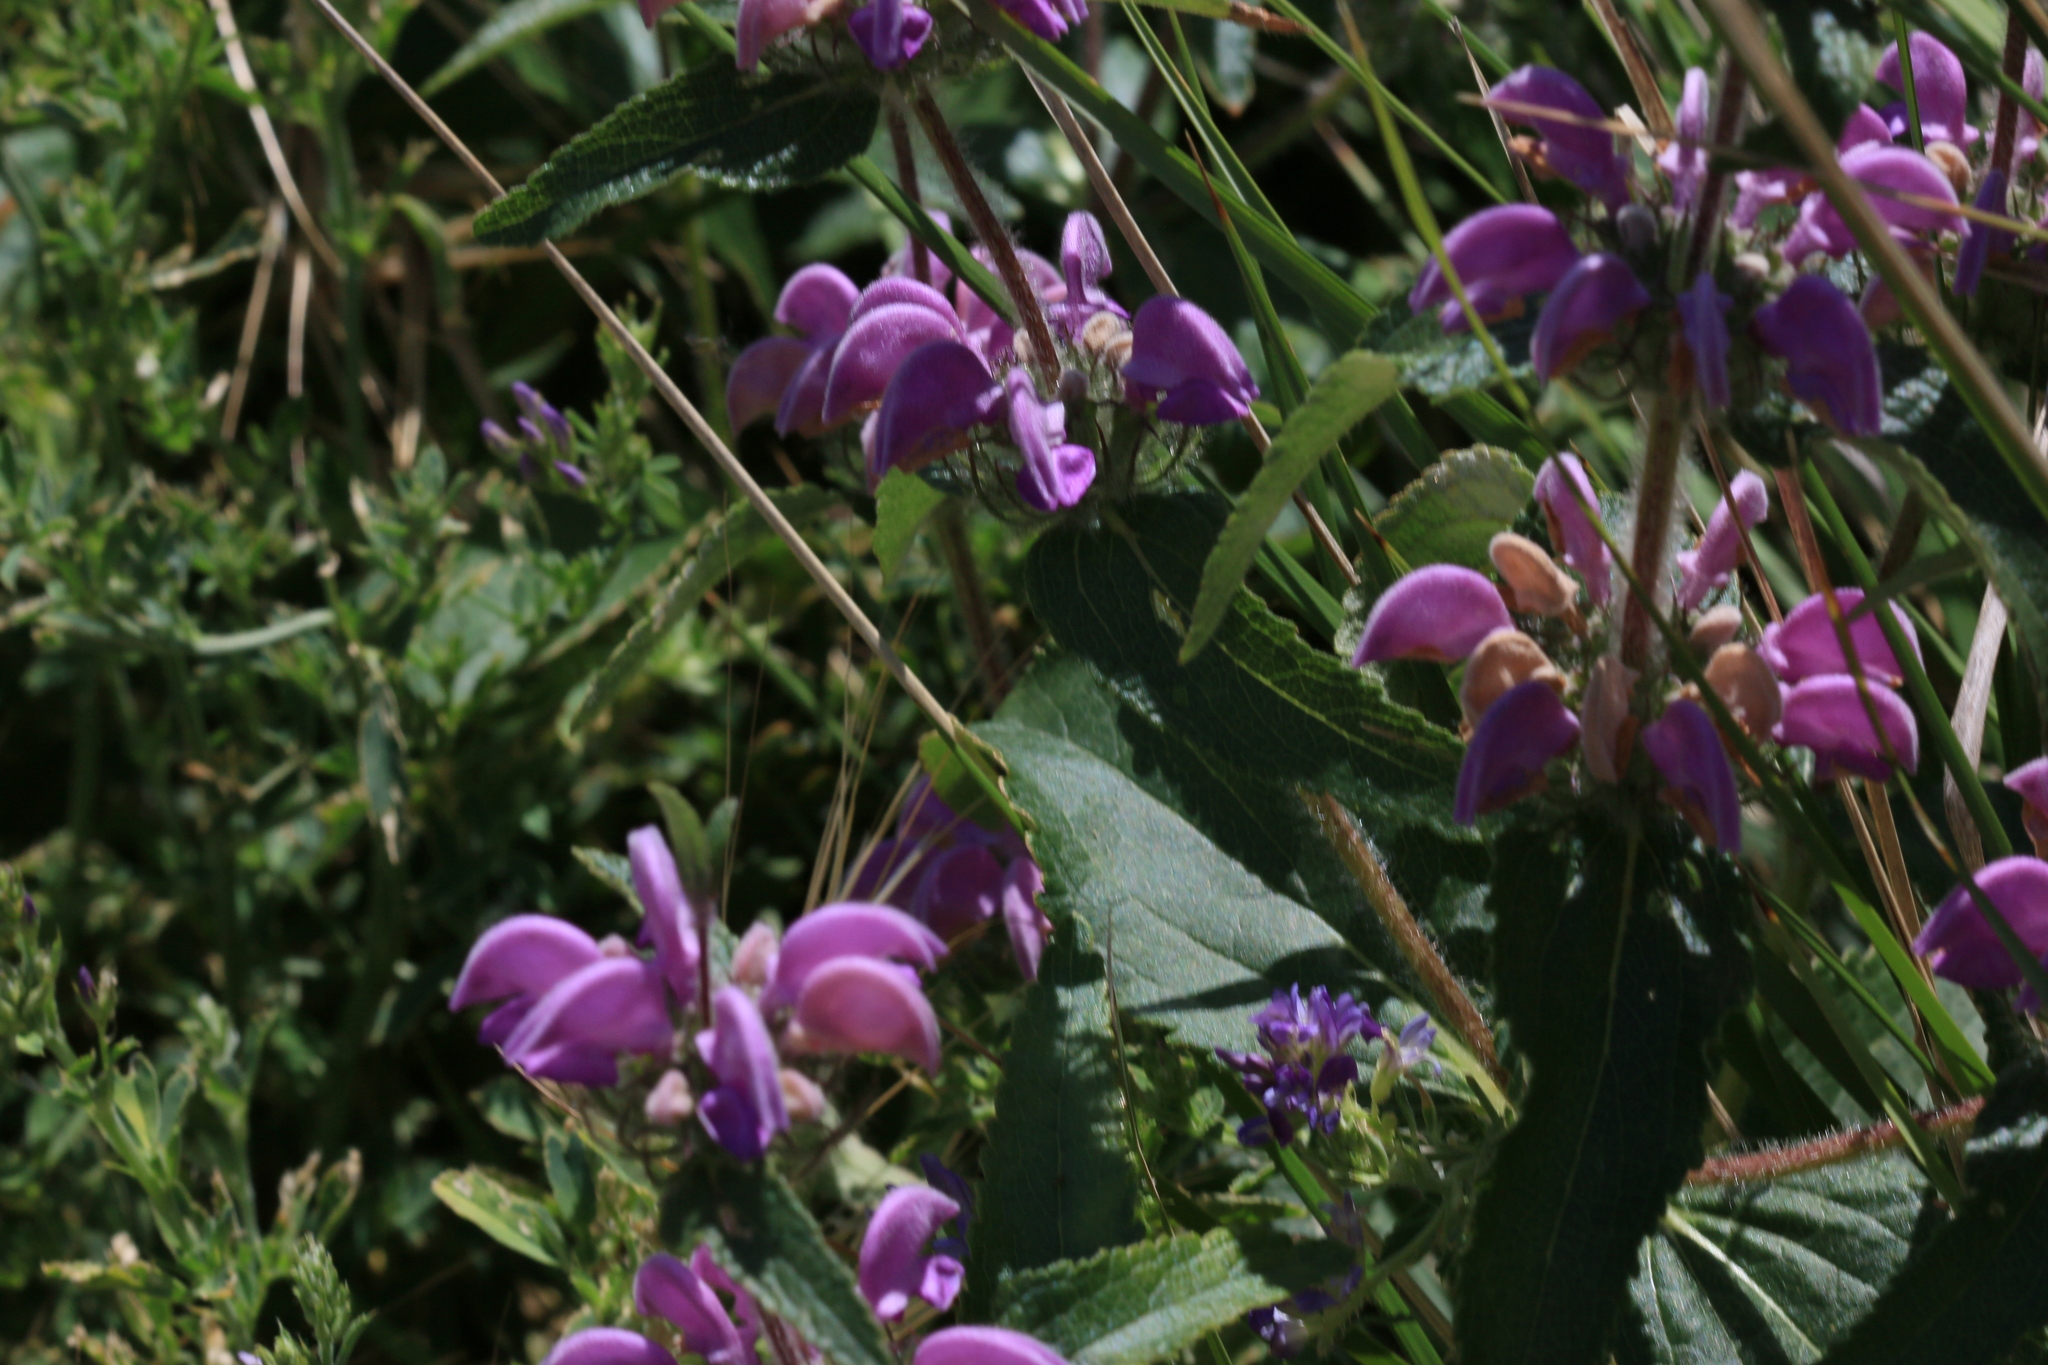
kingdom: Plantae
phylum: Tracheophyta
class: Magnoliopsida
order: Lamiales
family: Lamiaceae
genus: Phlomis
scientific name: Phlomis herba-venti
